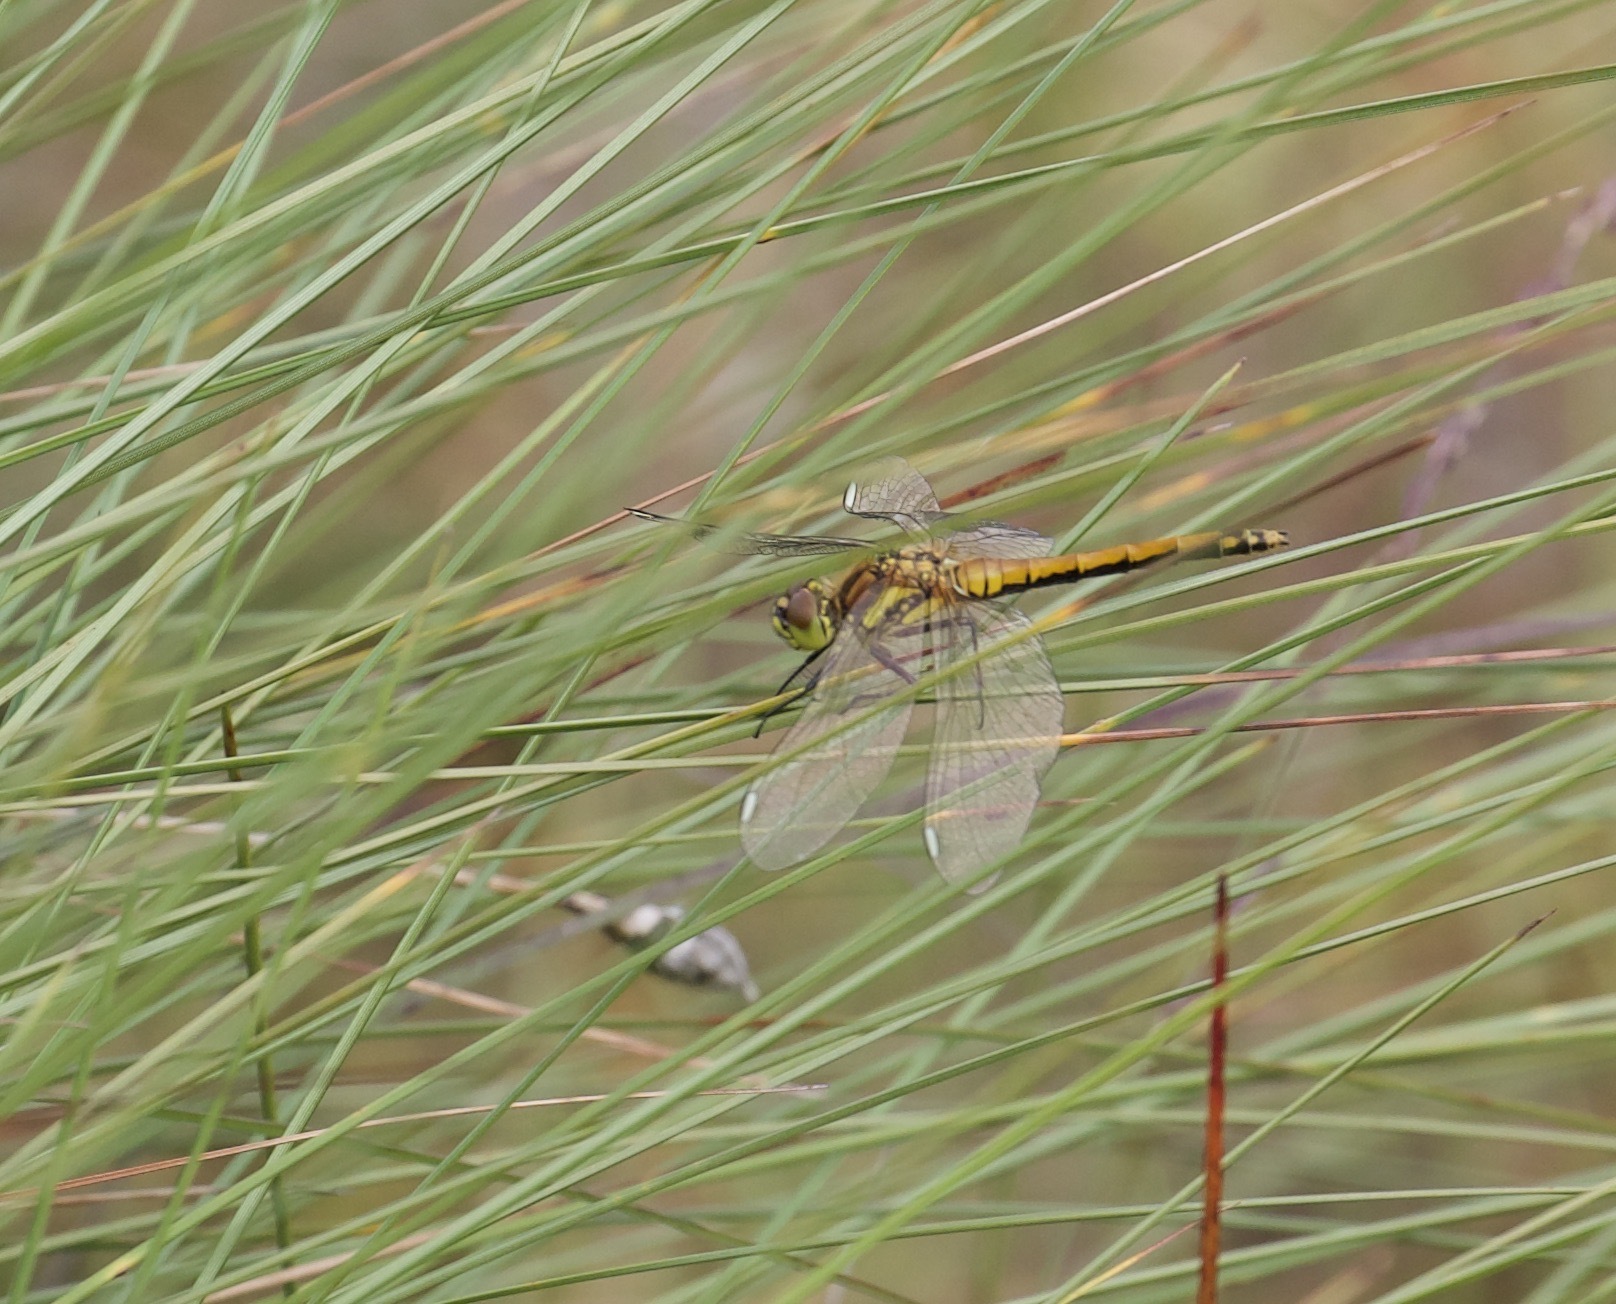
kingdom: Animalia
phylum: Arthropoda
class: Insecta
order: Odonata
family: Libellulidae
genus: Sympetrum
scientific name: Sympetrum danae
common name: Black darter
